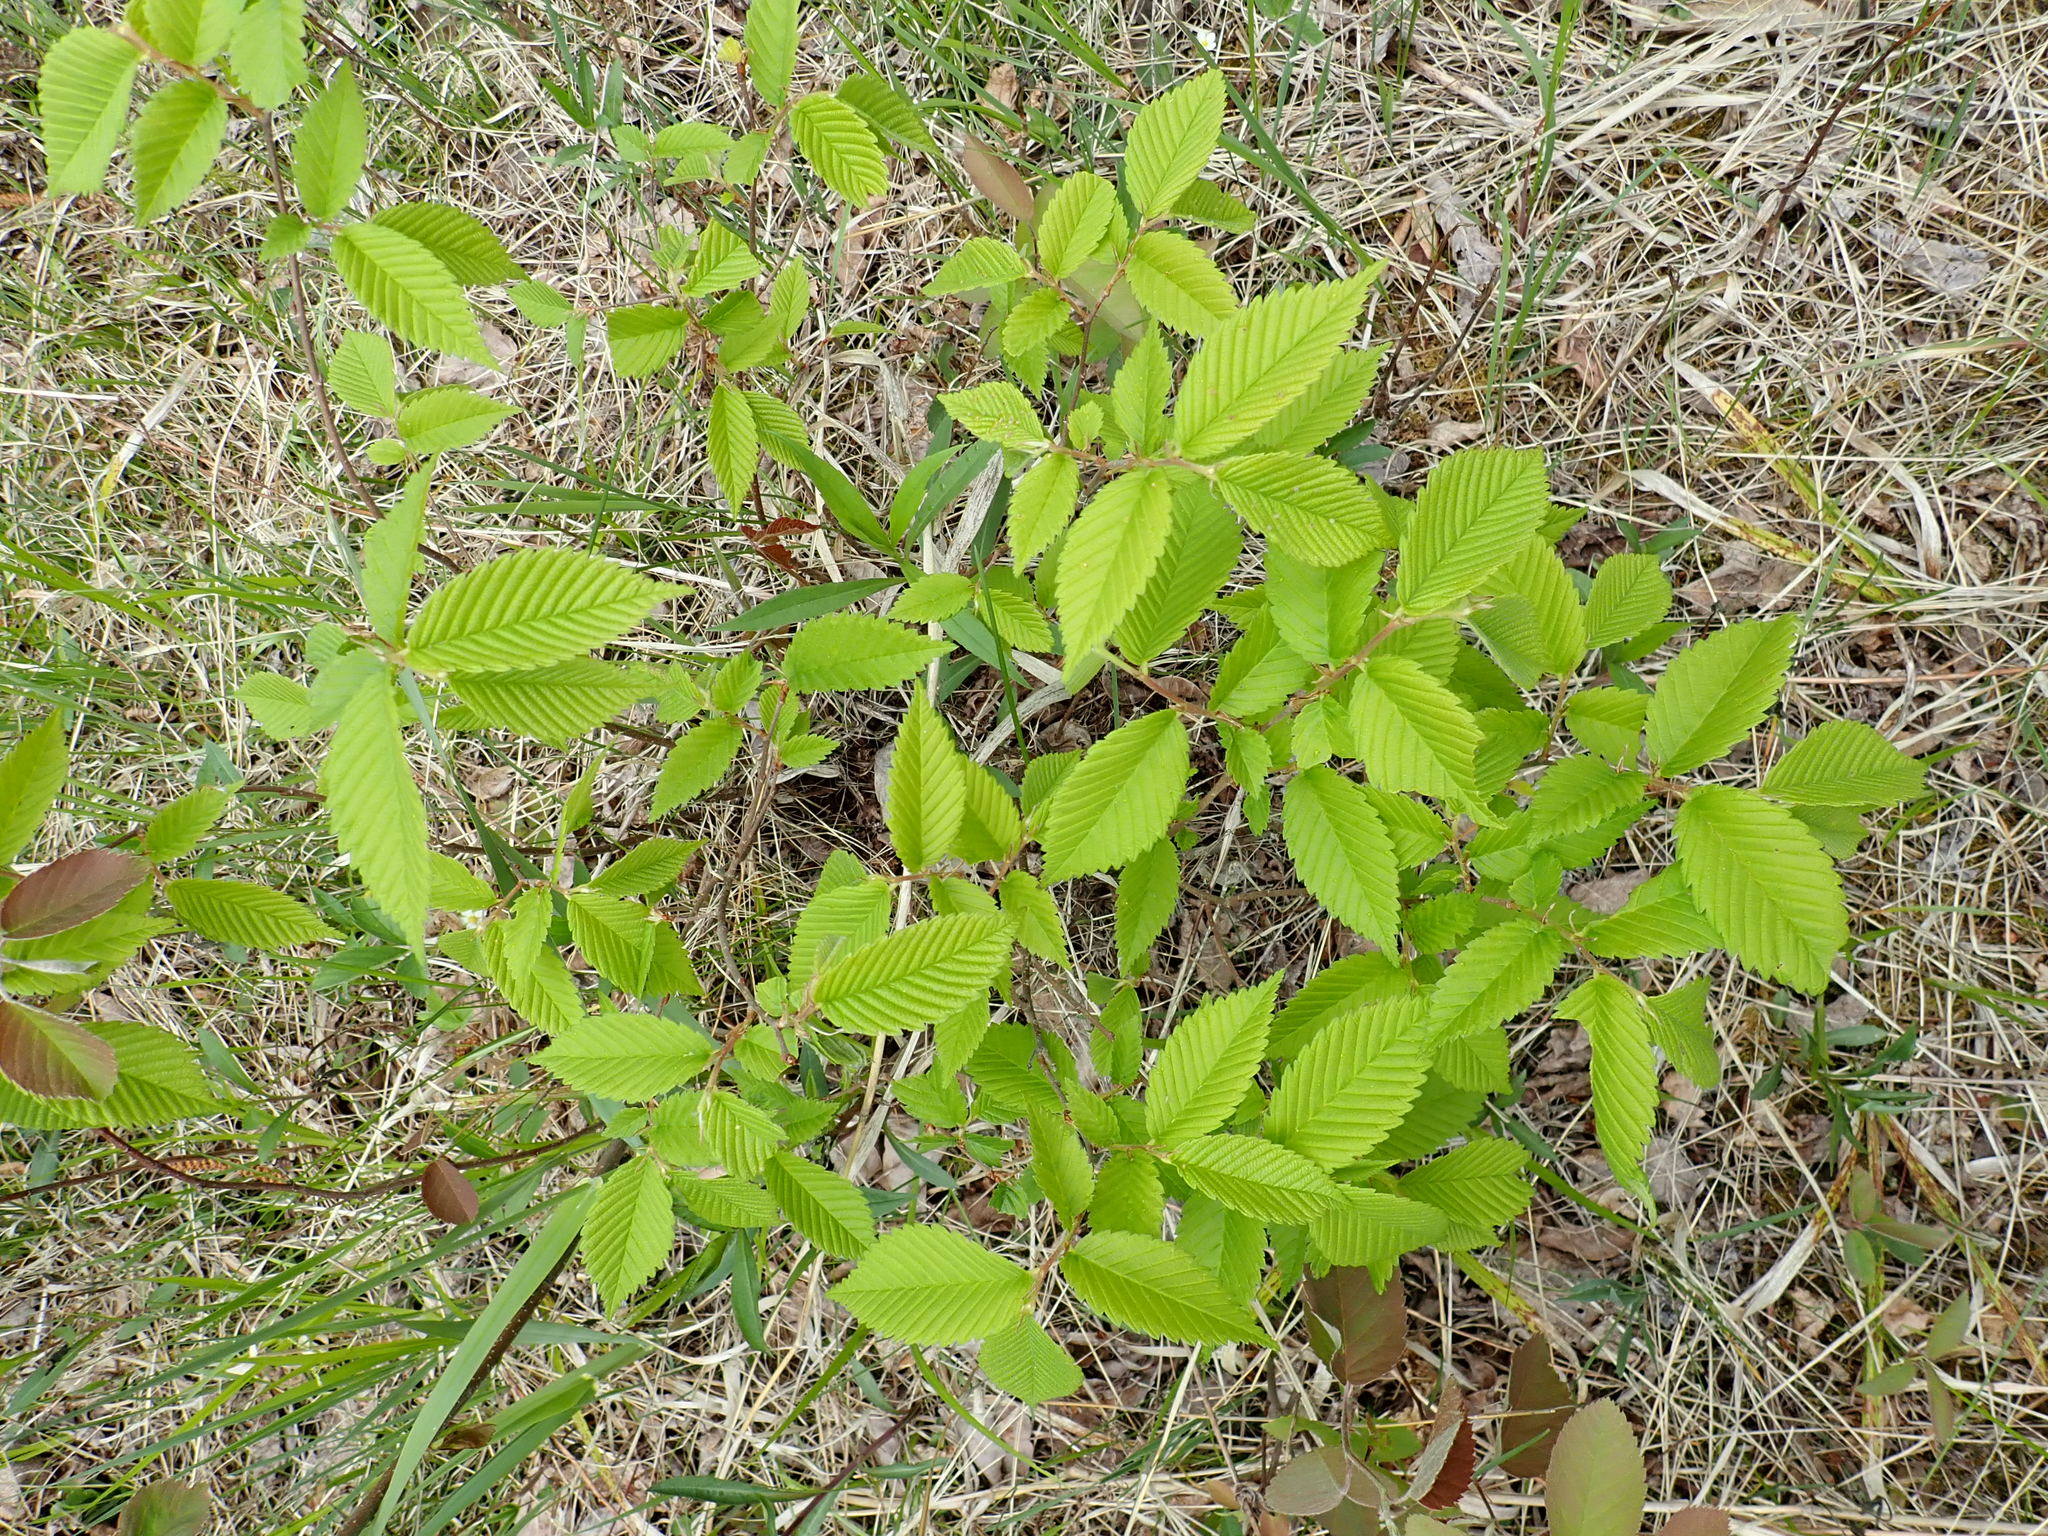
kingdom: Plantae
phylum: Tracheophyta
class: Magnoliopsida
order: Rosales
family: Ulmaceae
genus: Ulmus
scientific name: Ulmus americana
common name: American elm
